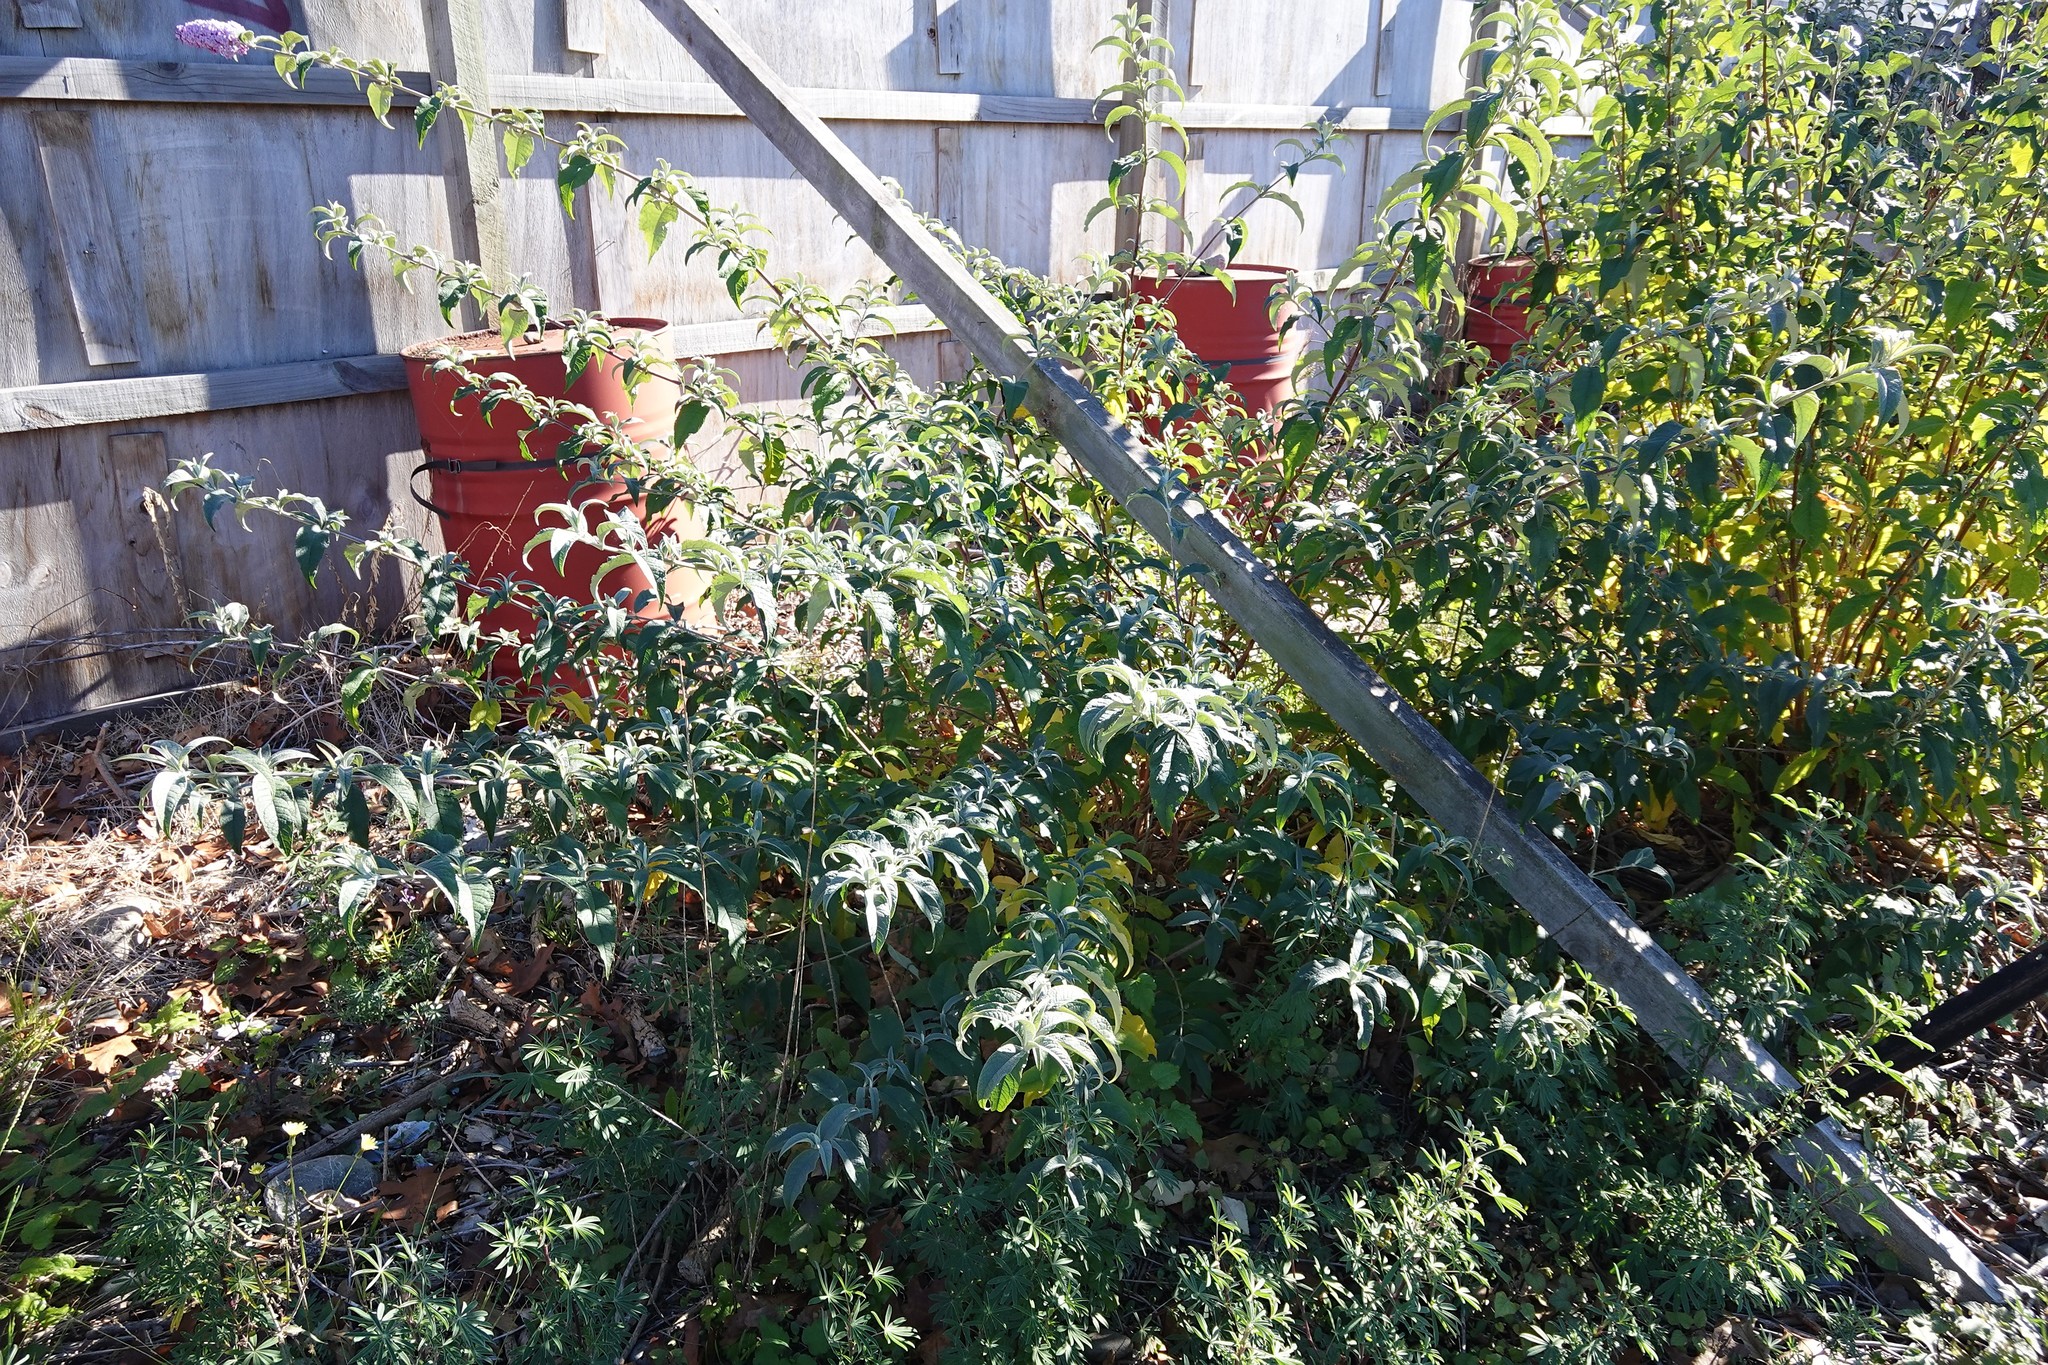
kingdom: Plantae
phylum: Tracheophyta
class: Magnoliopsida
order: Lamiales
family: Scrophulariaceae
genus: Buddleja
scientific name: Buddleja davidii
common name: Butterfly-bush
